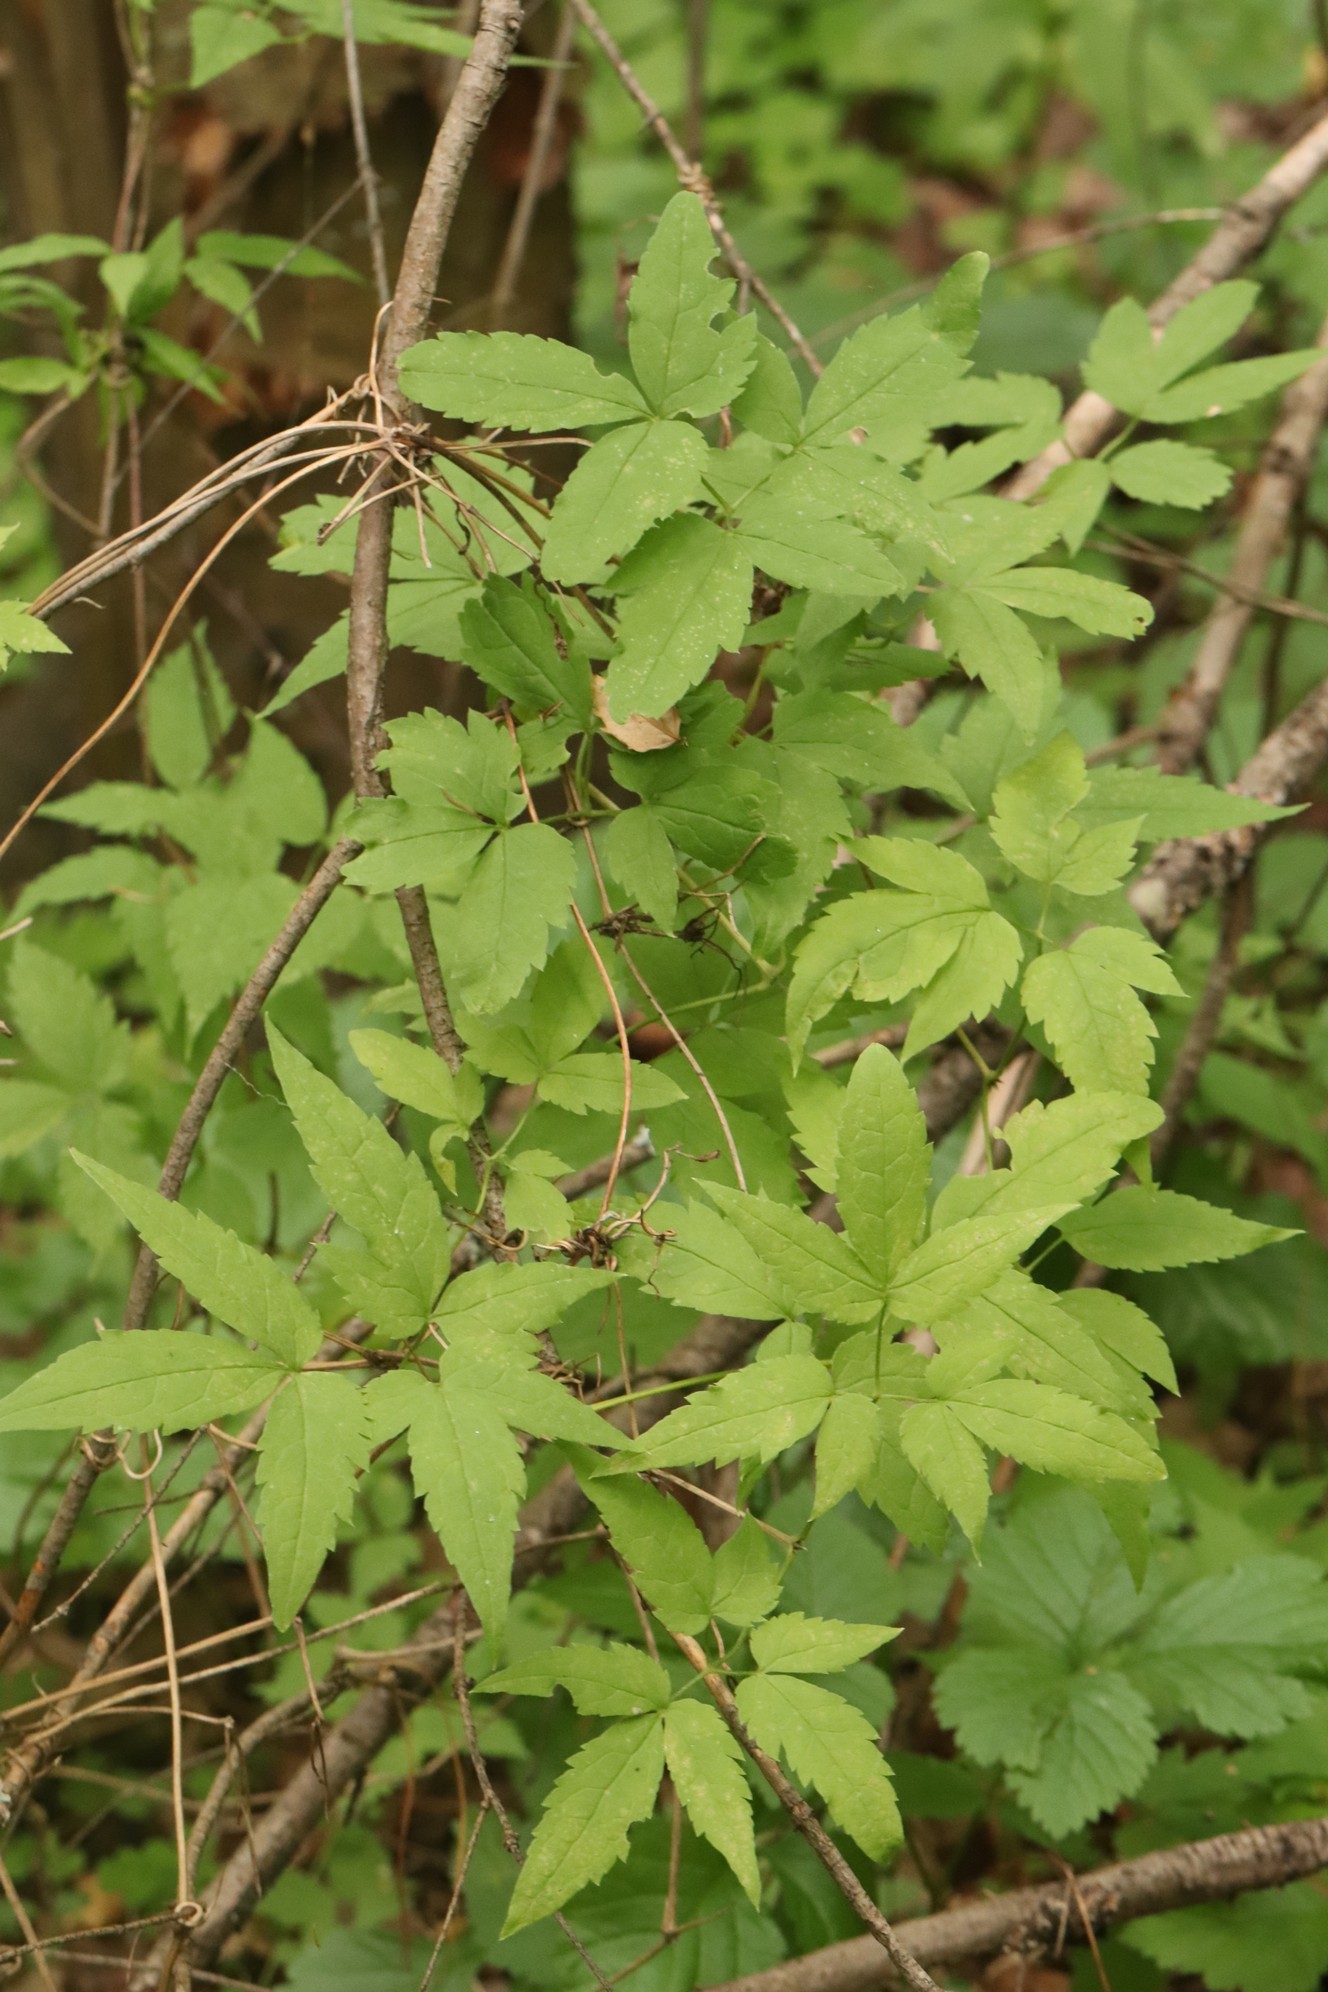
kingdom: Plantae
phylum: Tracheophyta
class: Magnoliopsida
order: Ranunculales
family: Ranunculaceae
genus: Clematis
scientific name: Clematis sibirica
